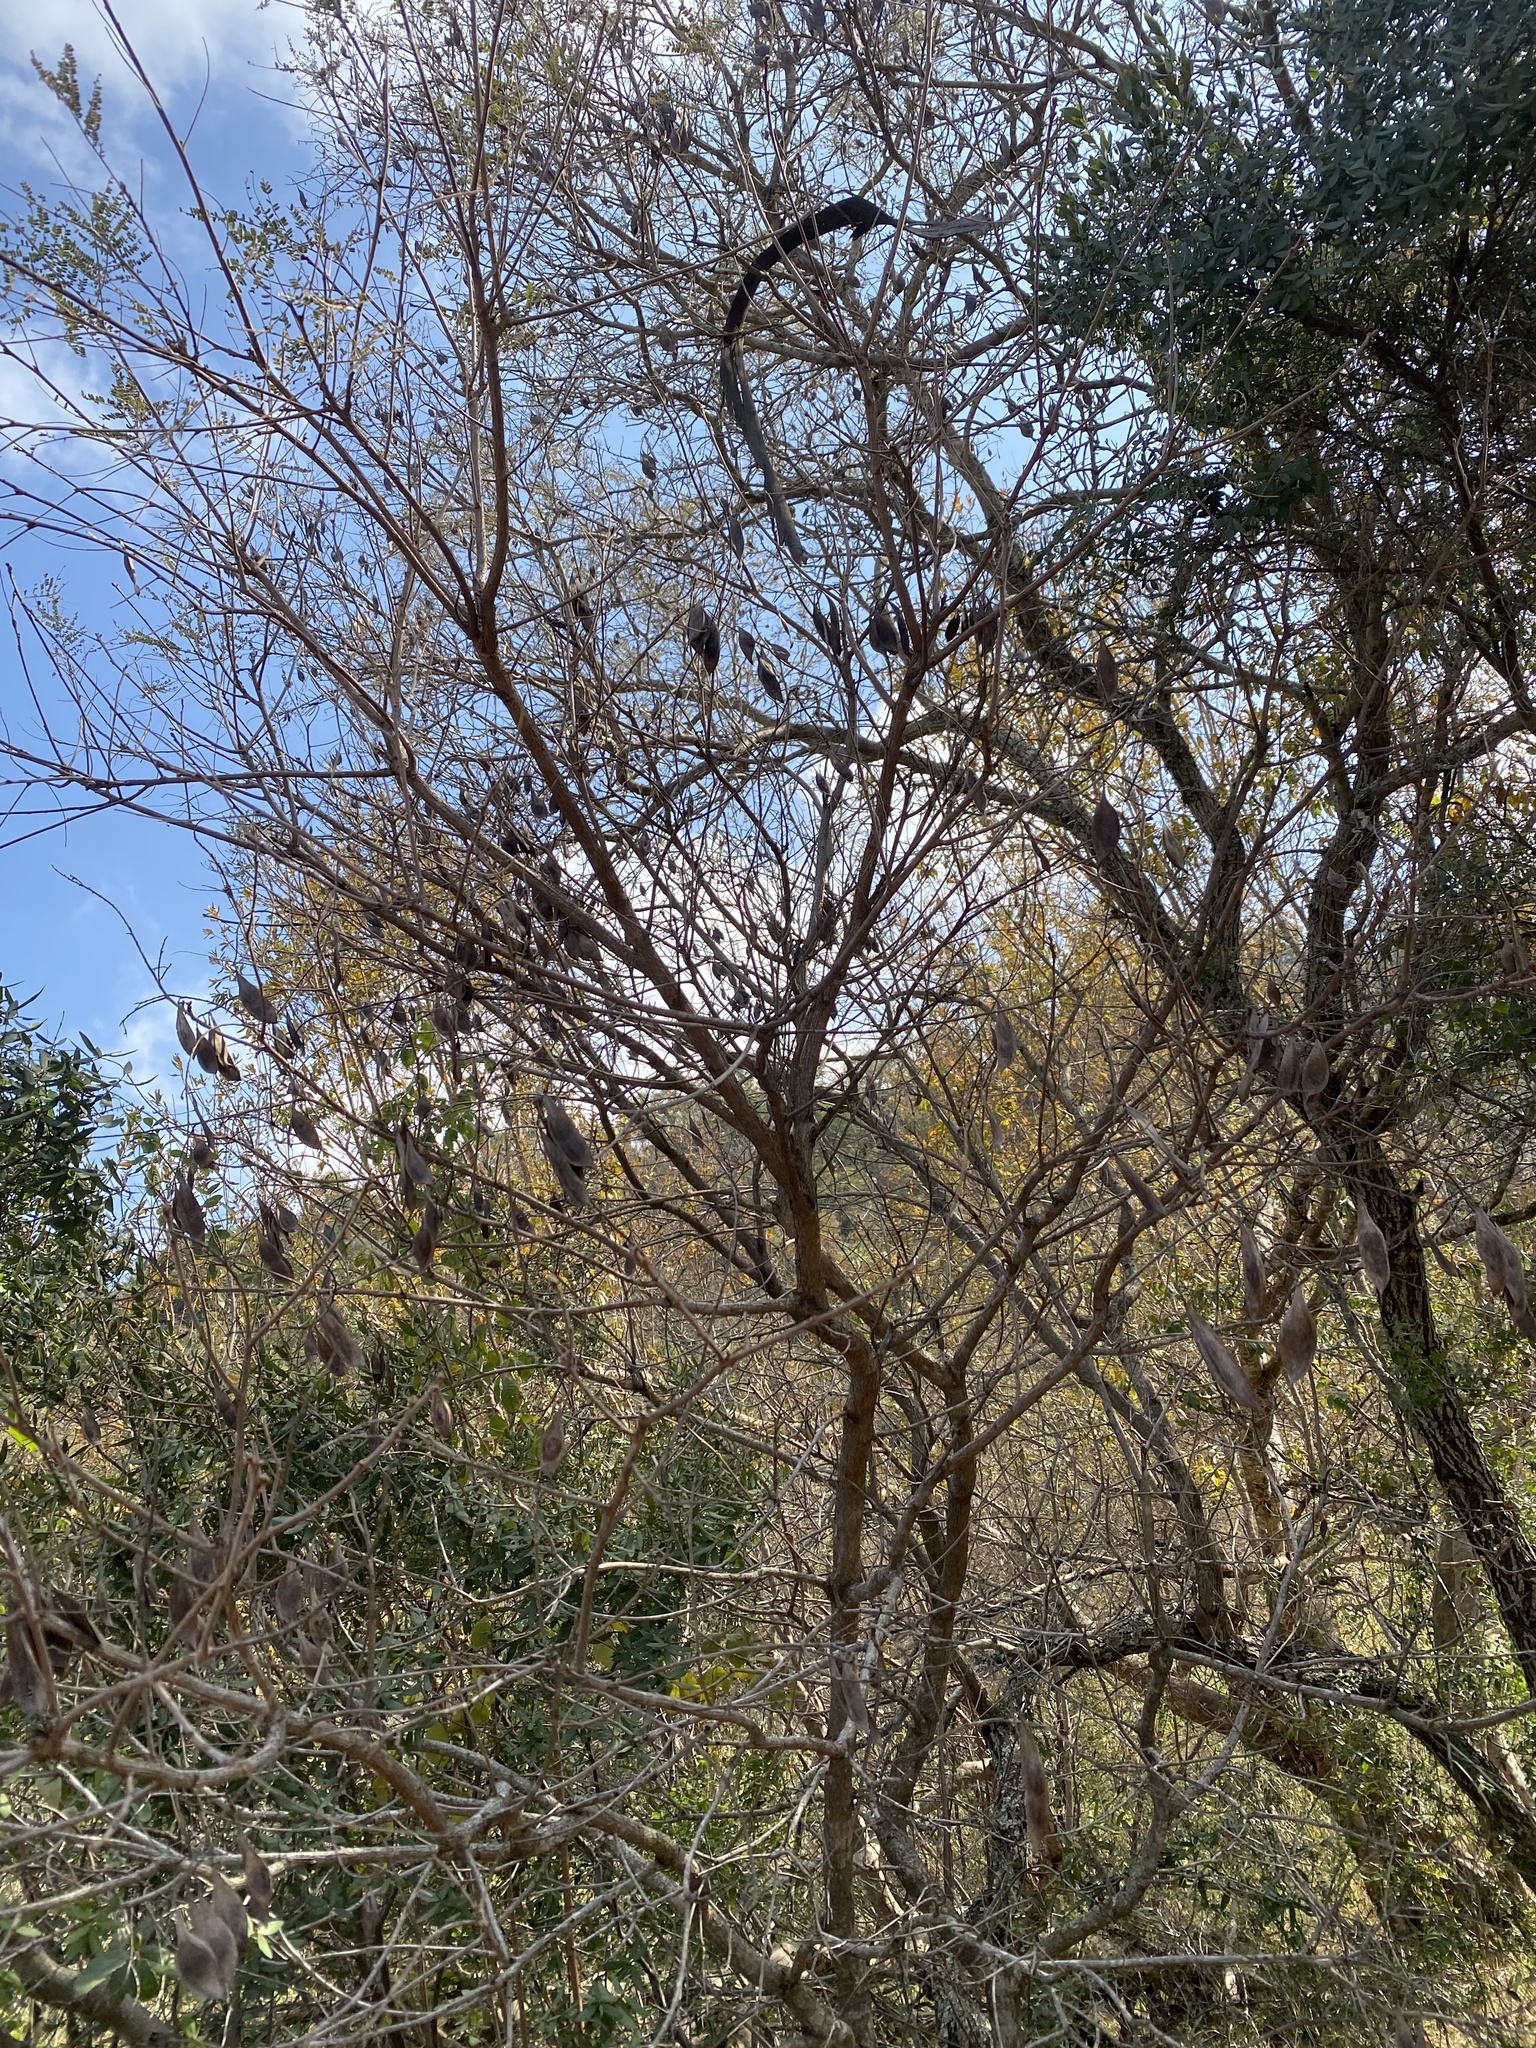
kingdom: Plantae
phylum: Tracheophyta
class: Magnoliopsida
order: Fabales
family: Fabaceae
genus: Peltophorum
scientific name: Peltophorum africanum
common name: African black wattle
